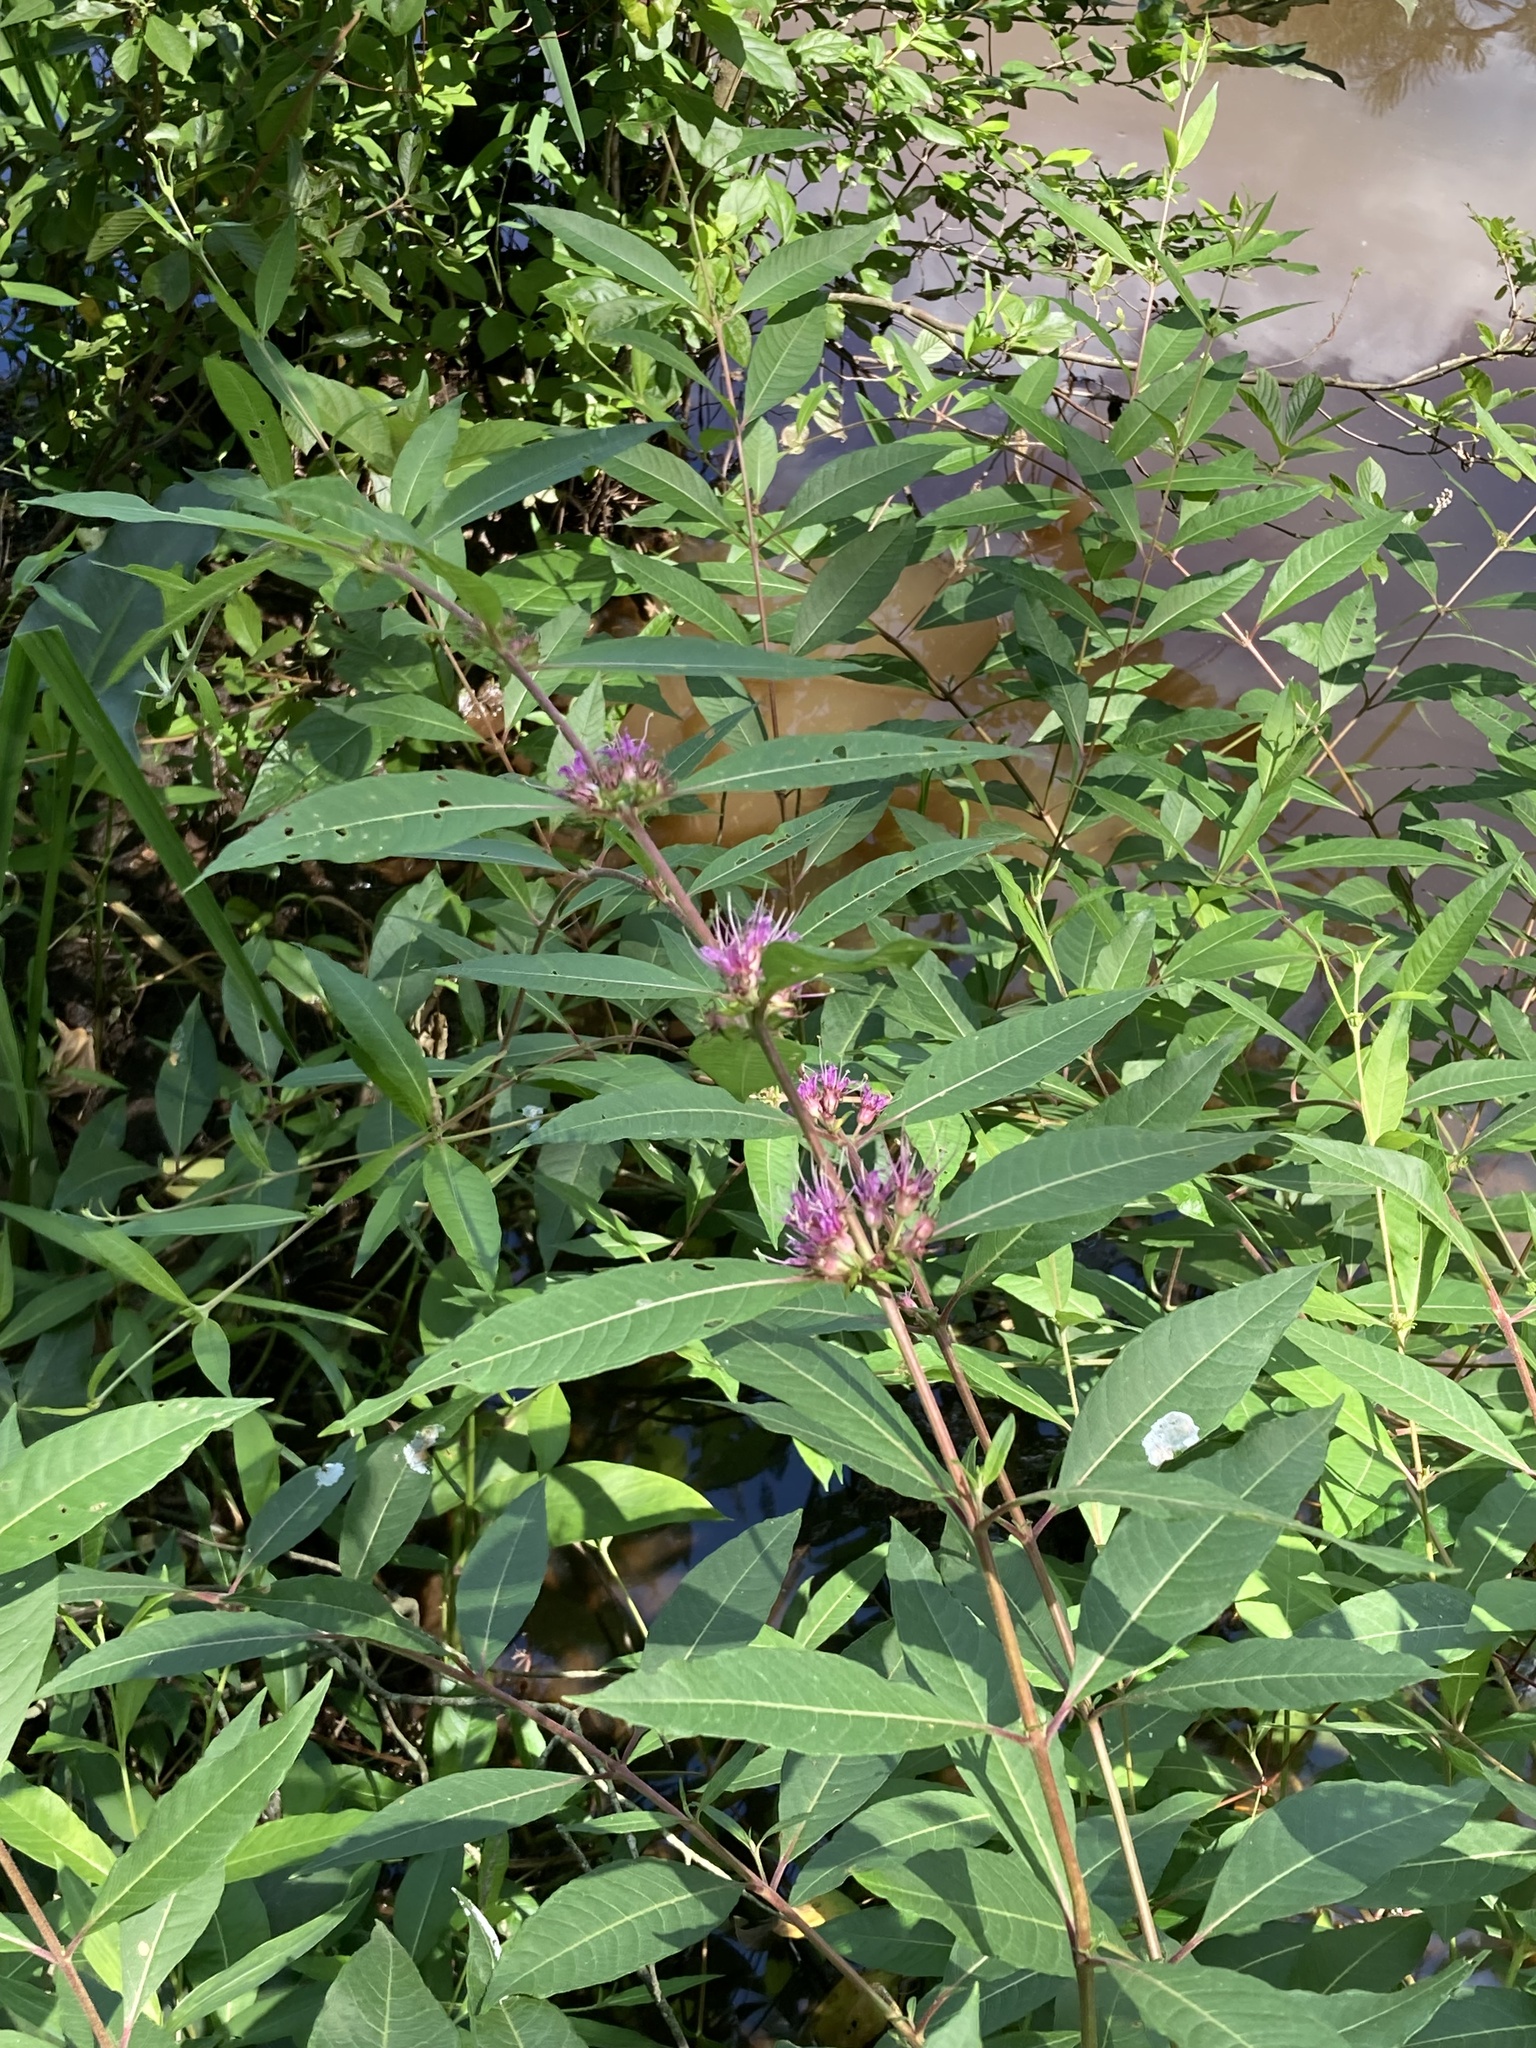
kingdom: Plantae
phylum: Tracheophyta
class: Magnoliopsida
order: Myrtales
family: Lythraceae
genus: Decodon
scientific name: Decodon verticillatus
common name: Hairy swamp loosestrife
